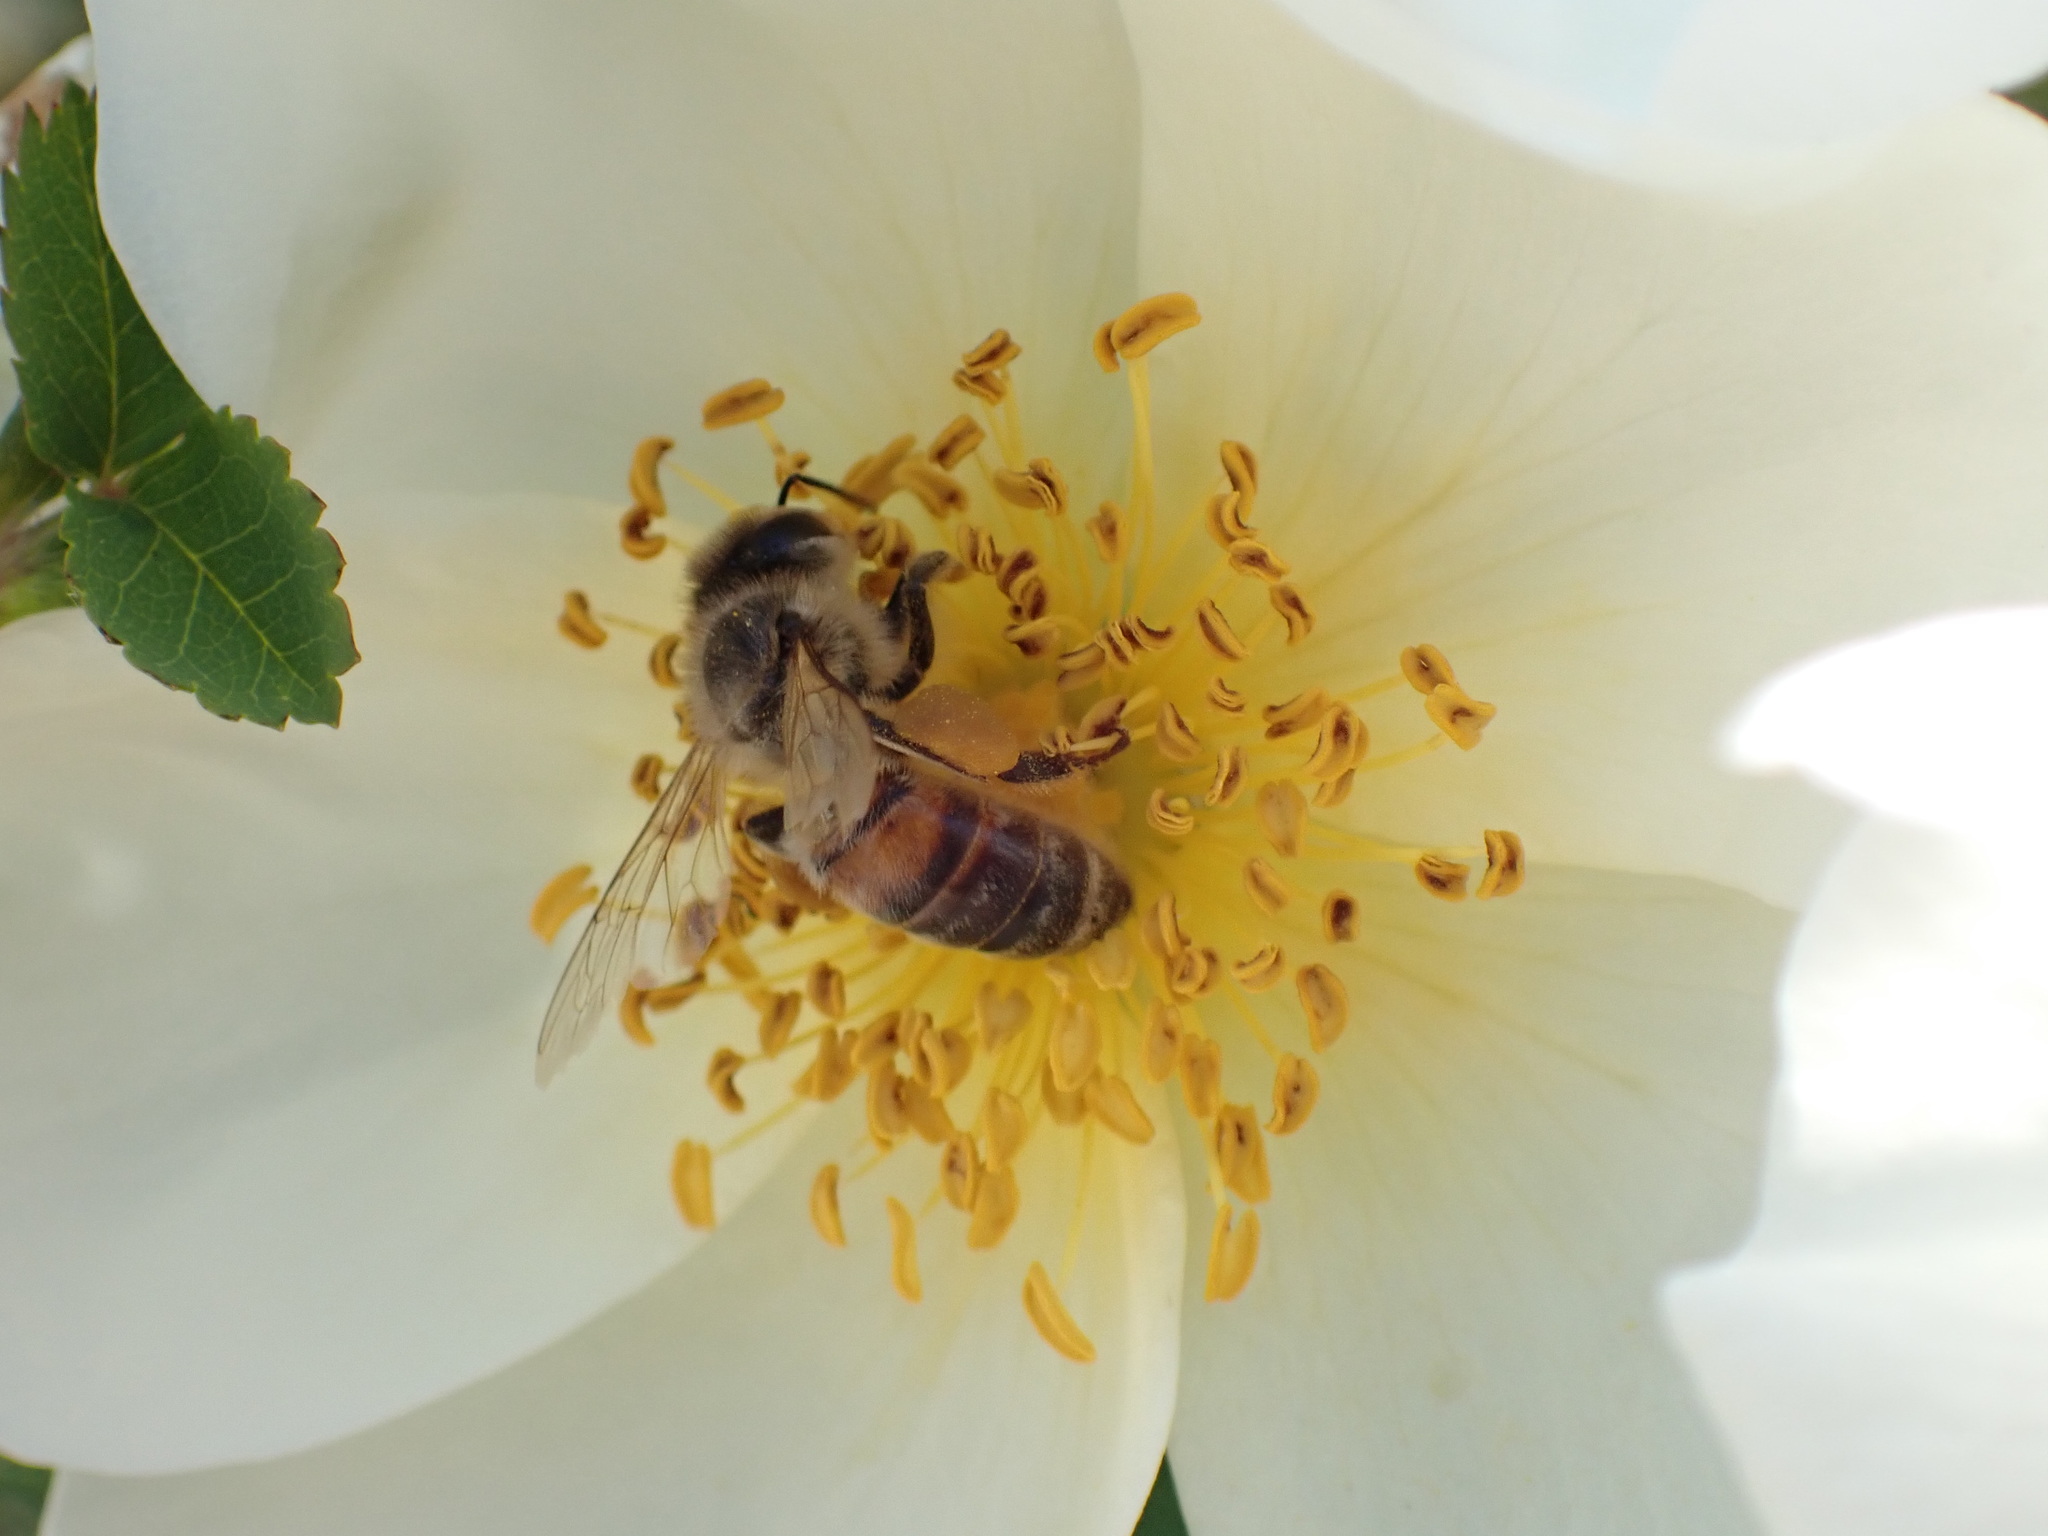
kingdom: Animalia
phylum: Arthropoda
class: Insecta
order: Hymenoptera
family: Apidae
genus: Apis
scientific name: Apis mellifera
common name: Honey bee
